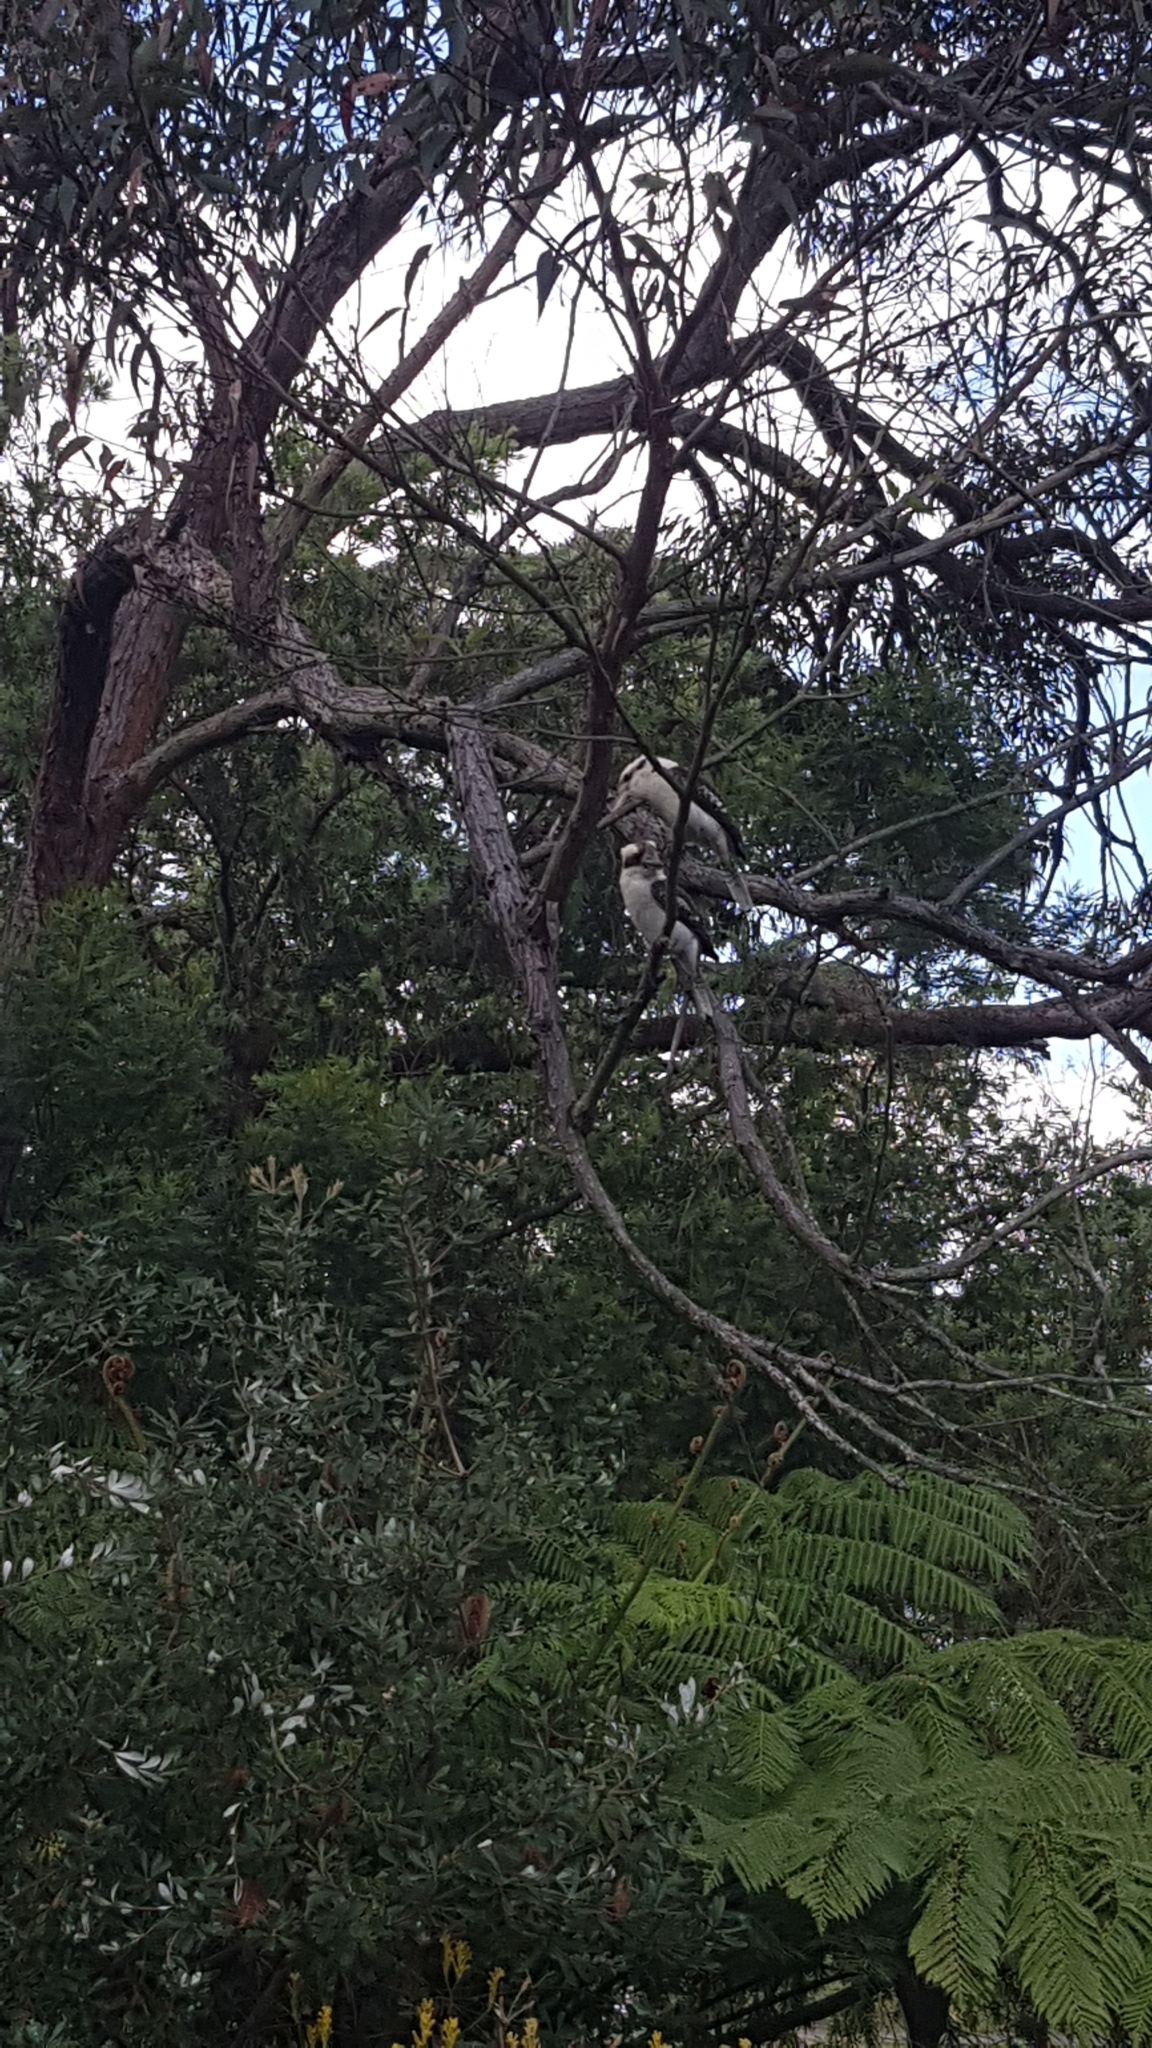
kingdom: Animalia
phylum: Chordata
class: Aves
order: Coraciiformes
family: Alcedinidae
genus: Dacelo
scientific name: Dacelo novaeguineae
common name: Laughing kookaburra
